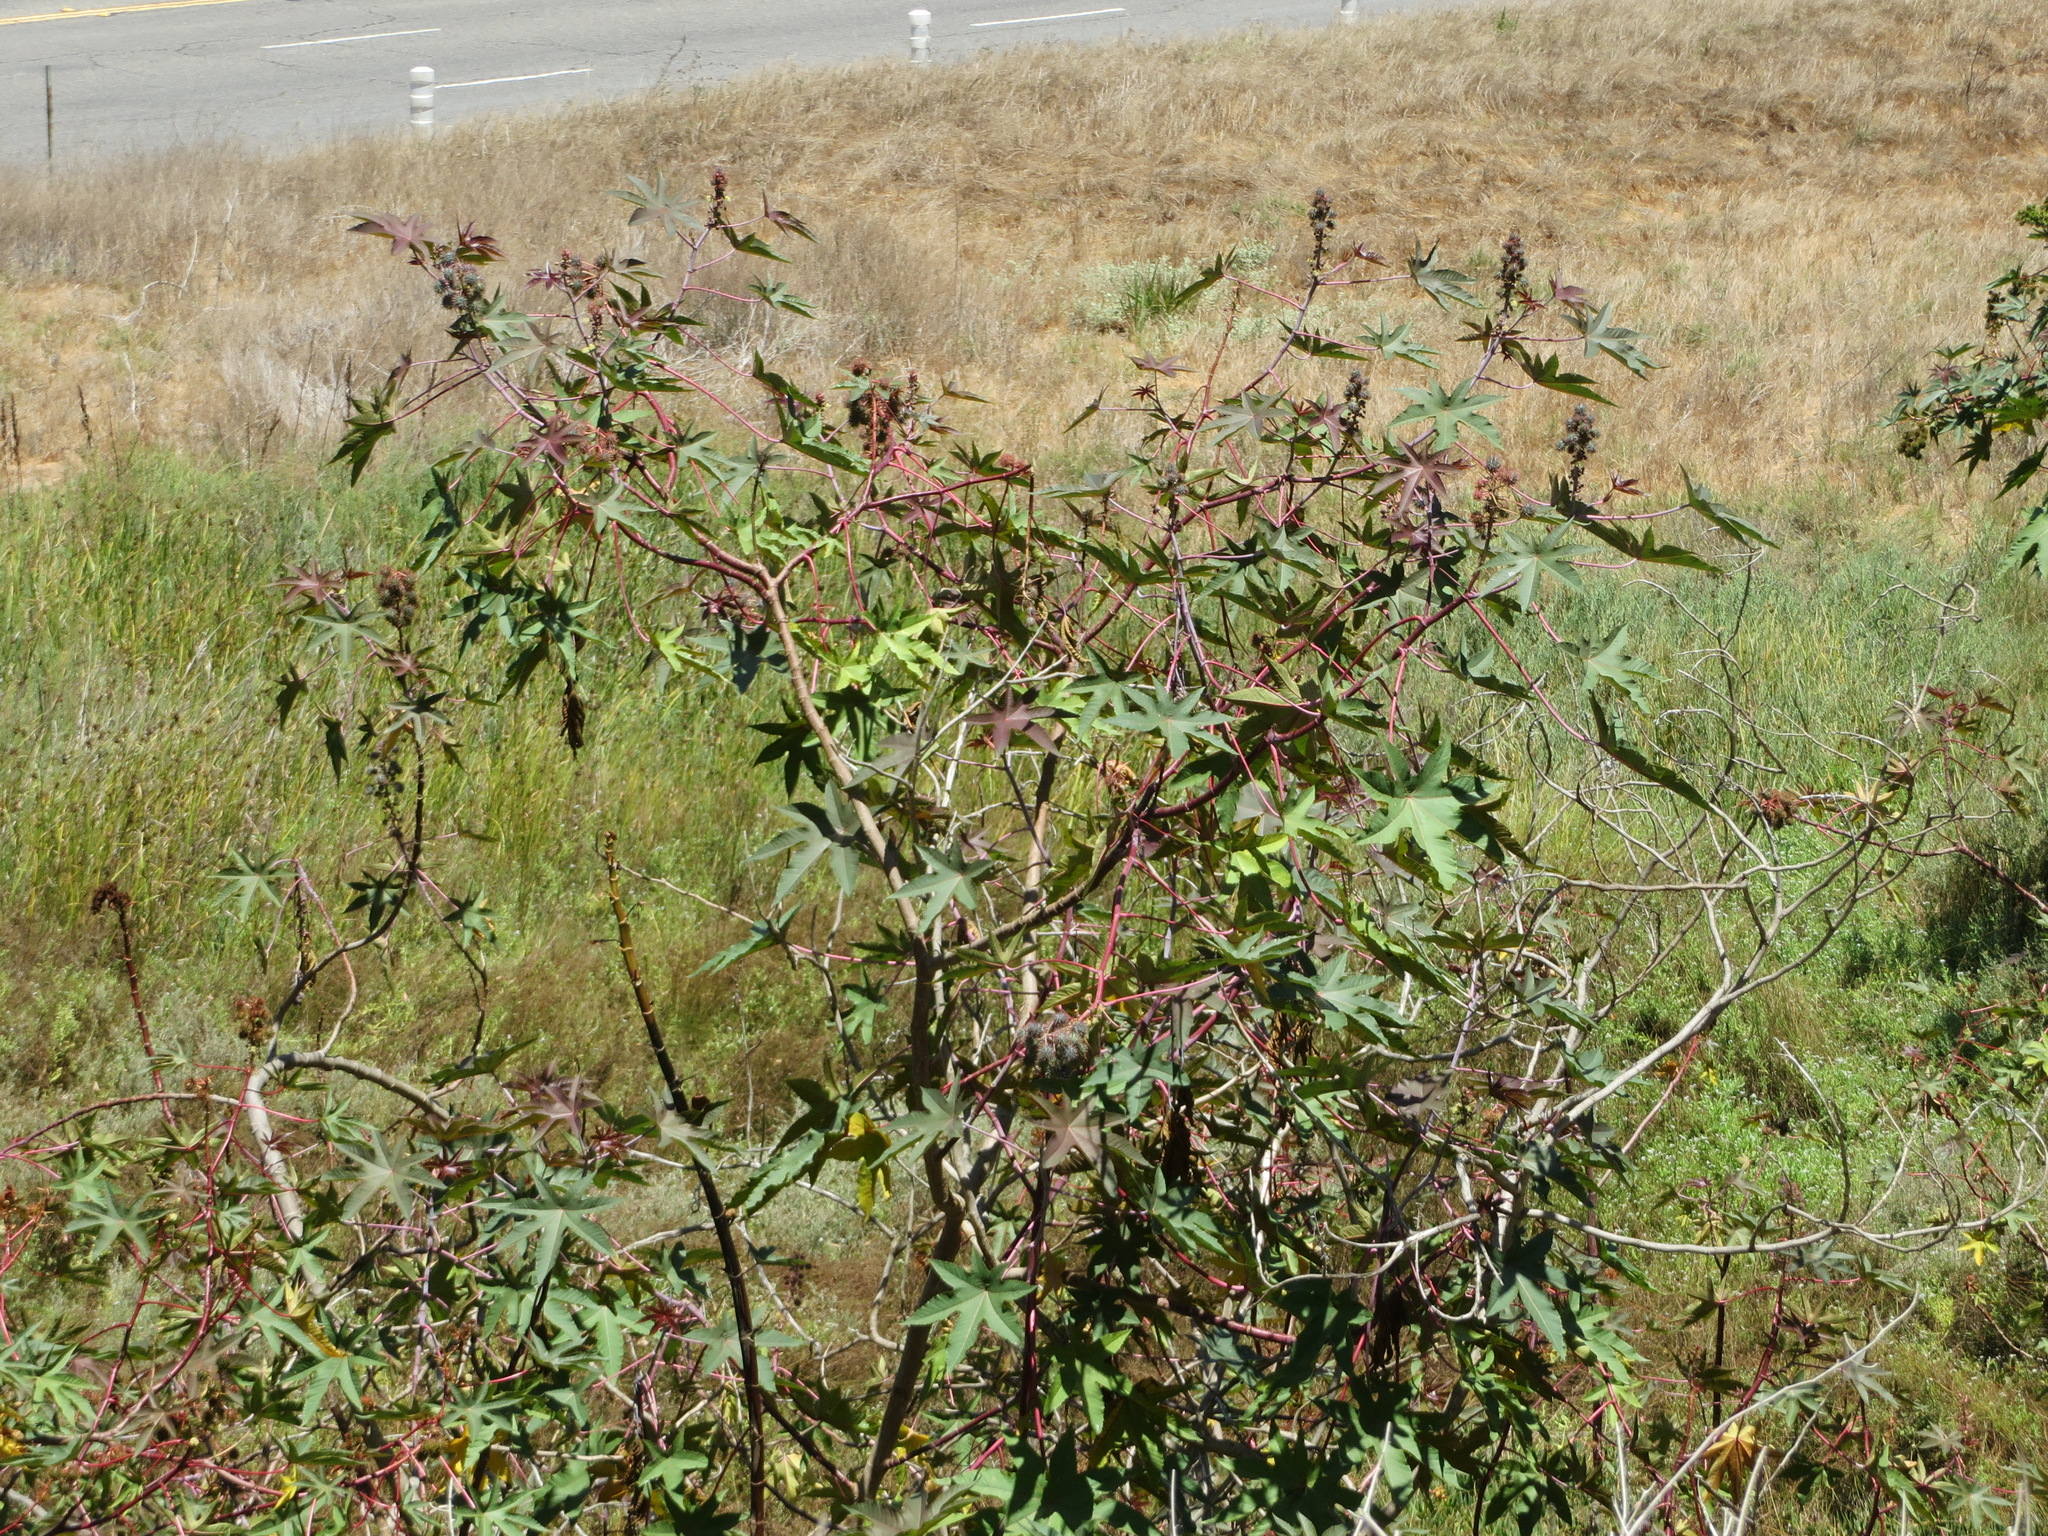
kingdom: Plantae
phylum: Tracheophyta
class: Magnoliopsida
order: Malpighiales
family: Euphorbiaceae
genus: Ricinus
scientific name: Ricinus communis
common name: Castor-oil-plant
